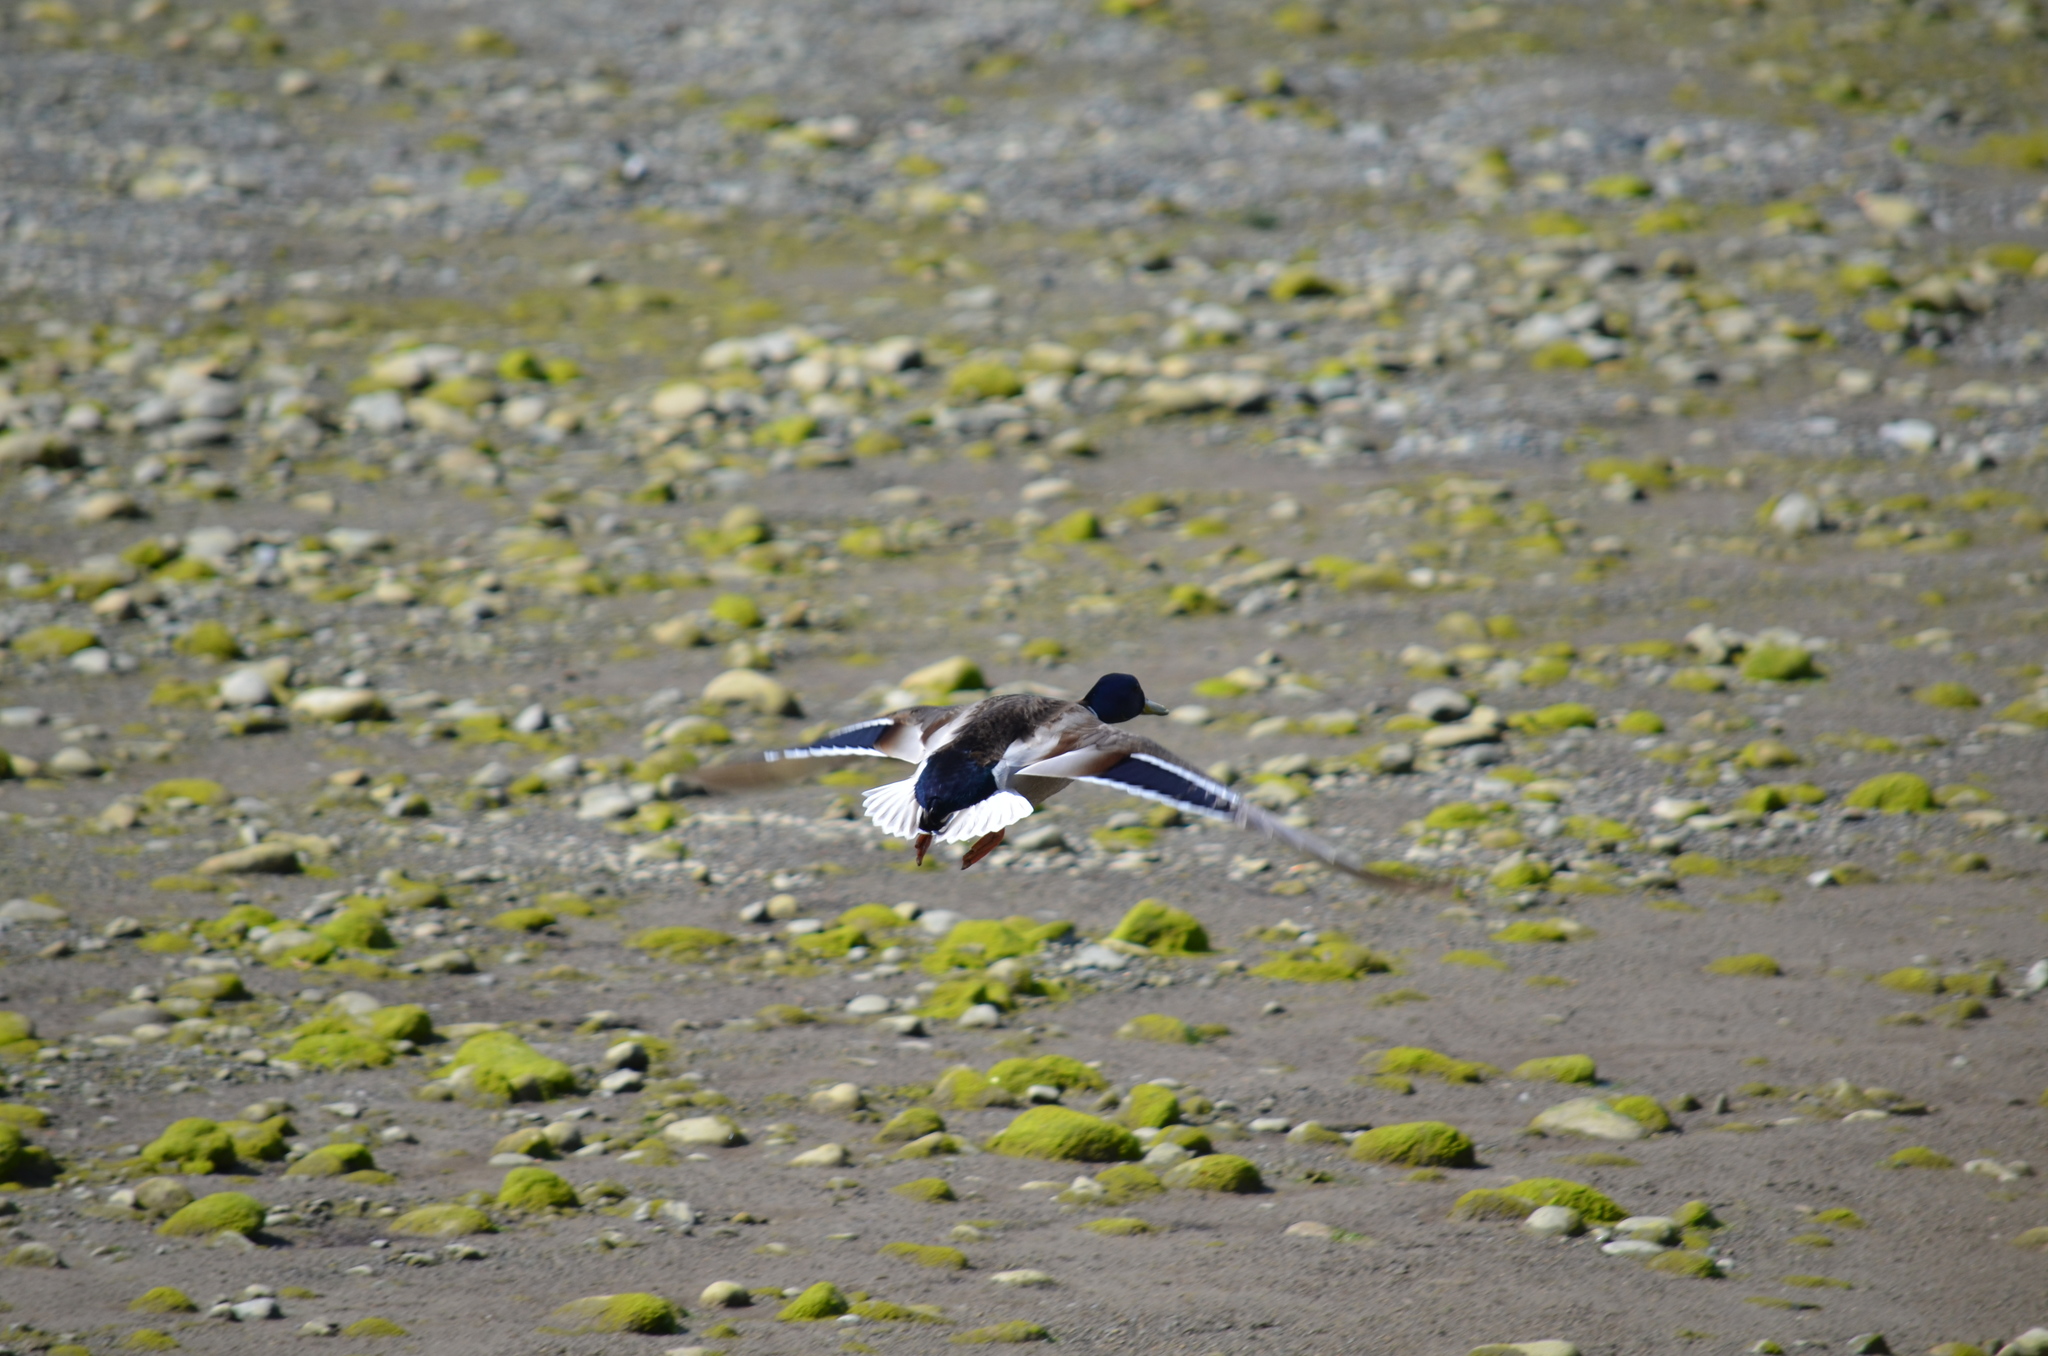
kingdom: Animalia
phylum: Chordata
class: Aves
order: Anseriformes
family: Anatidae
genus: Anas
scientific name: Anas platyrhynchos
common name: Mallard
